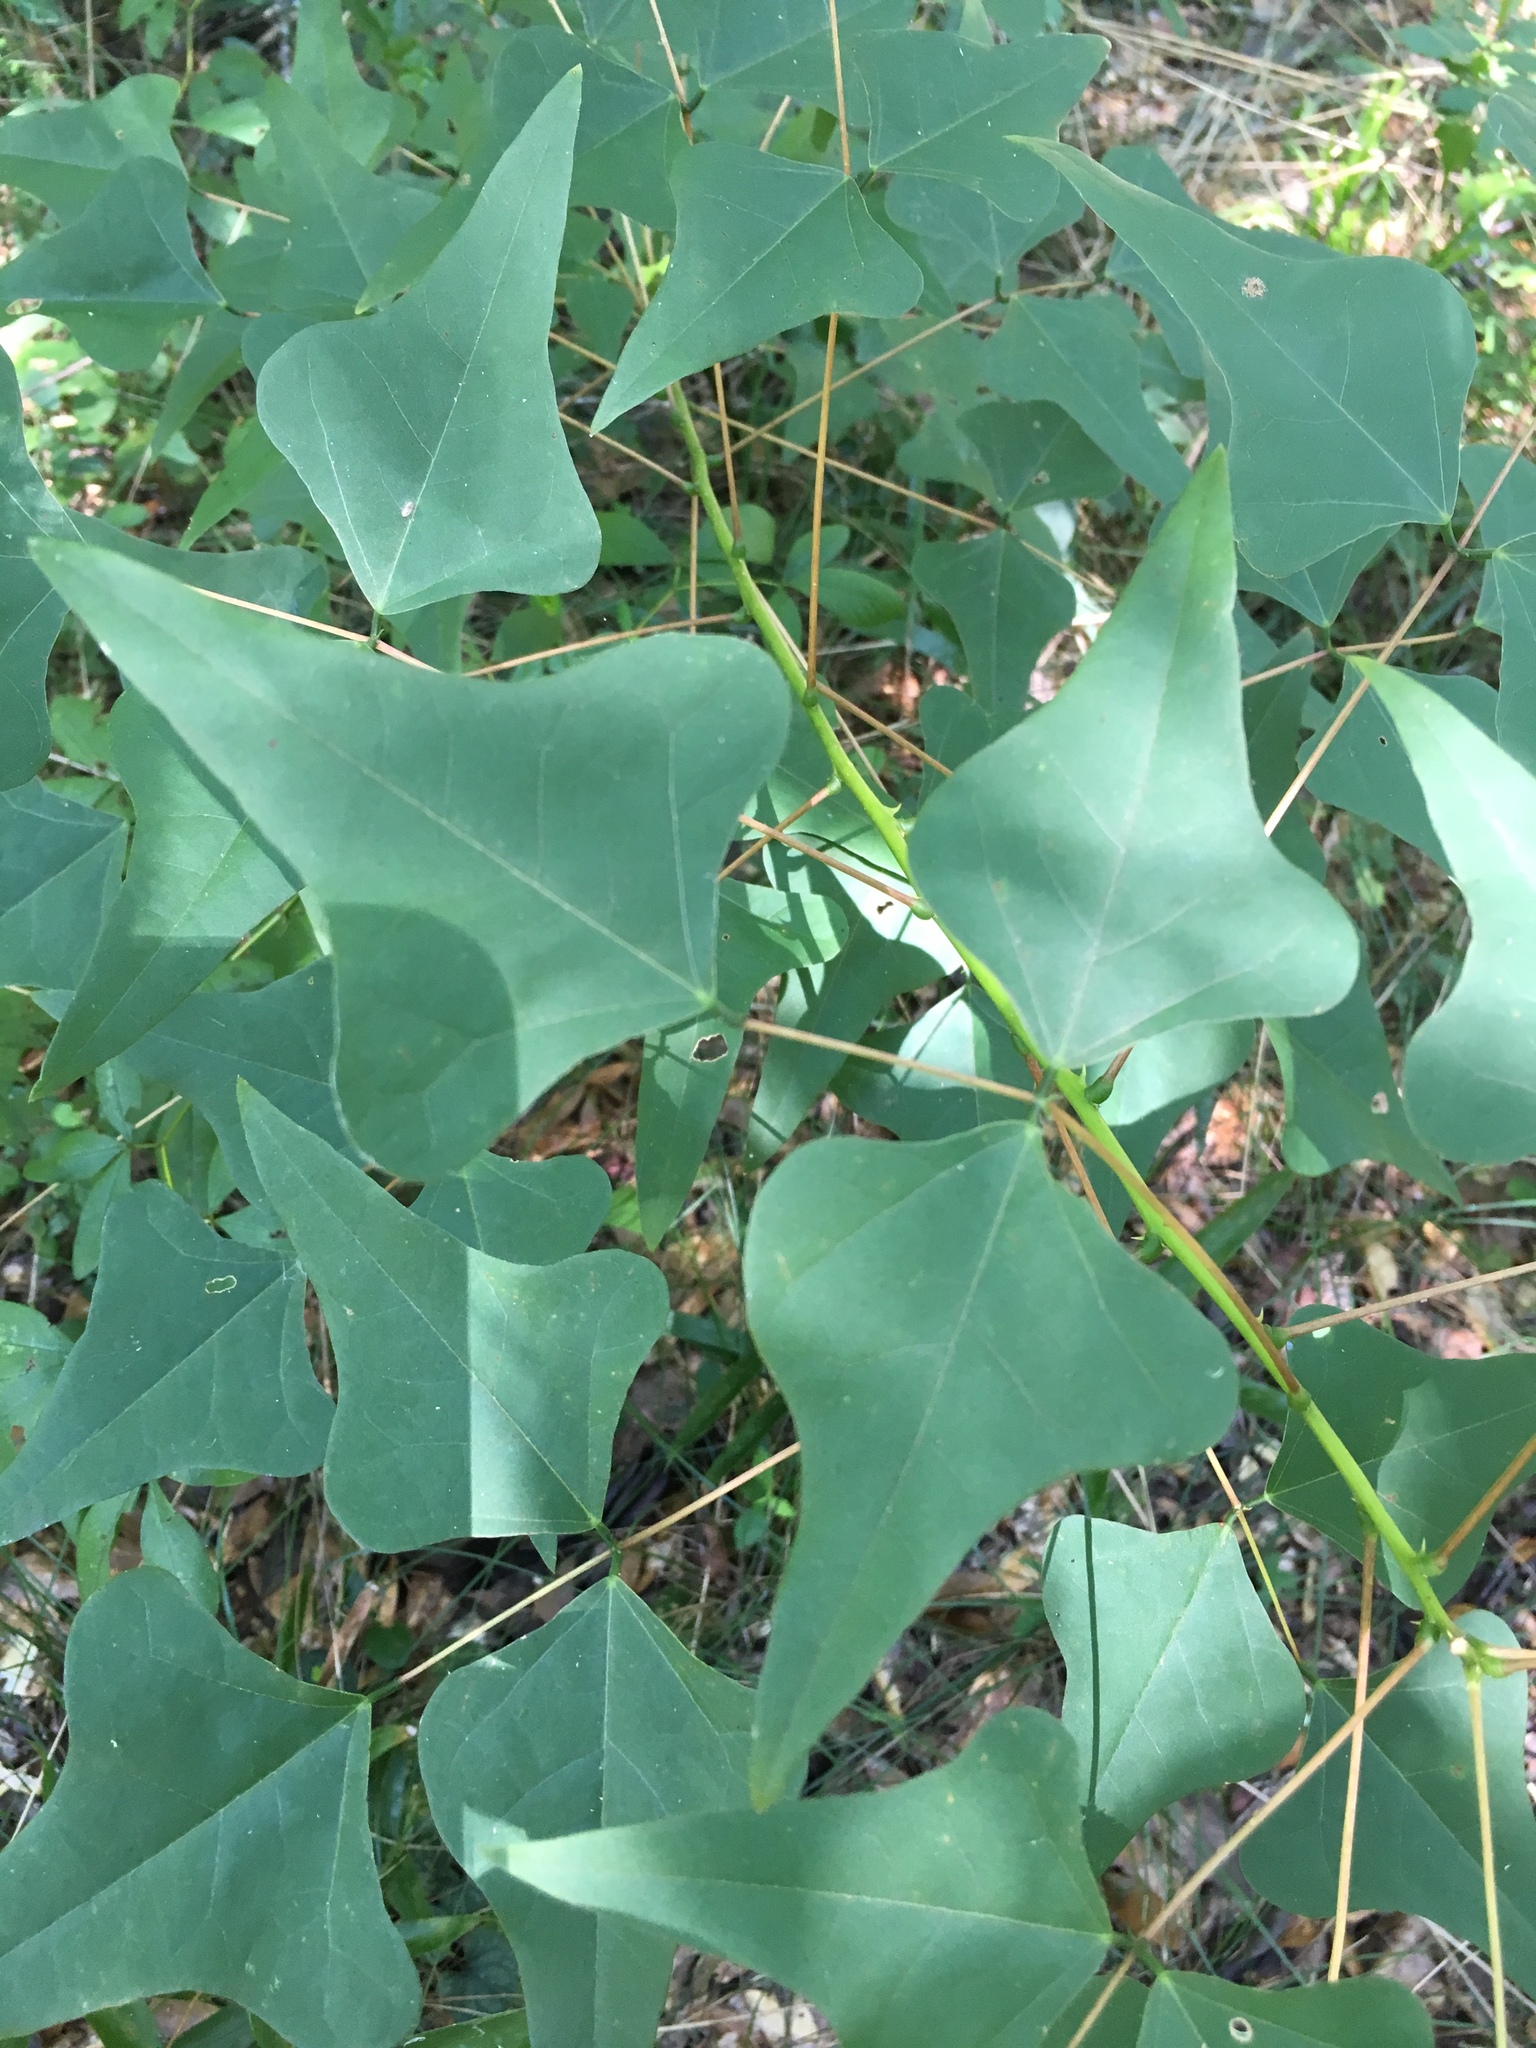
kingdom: Plantae
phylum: Tracheophyta
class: Magnoliopsida
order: Fabales
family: Fabaceae
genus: Erythrina
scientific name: Erythrina herbacea
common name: Coral-bean
